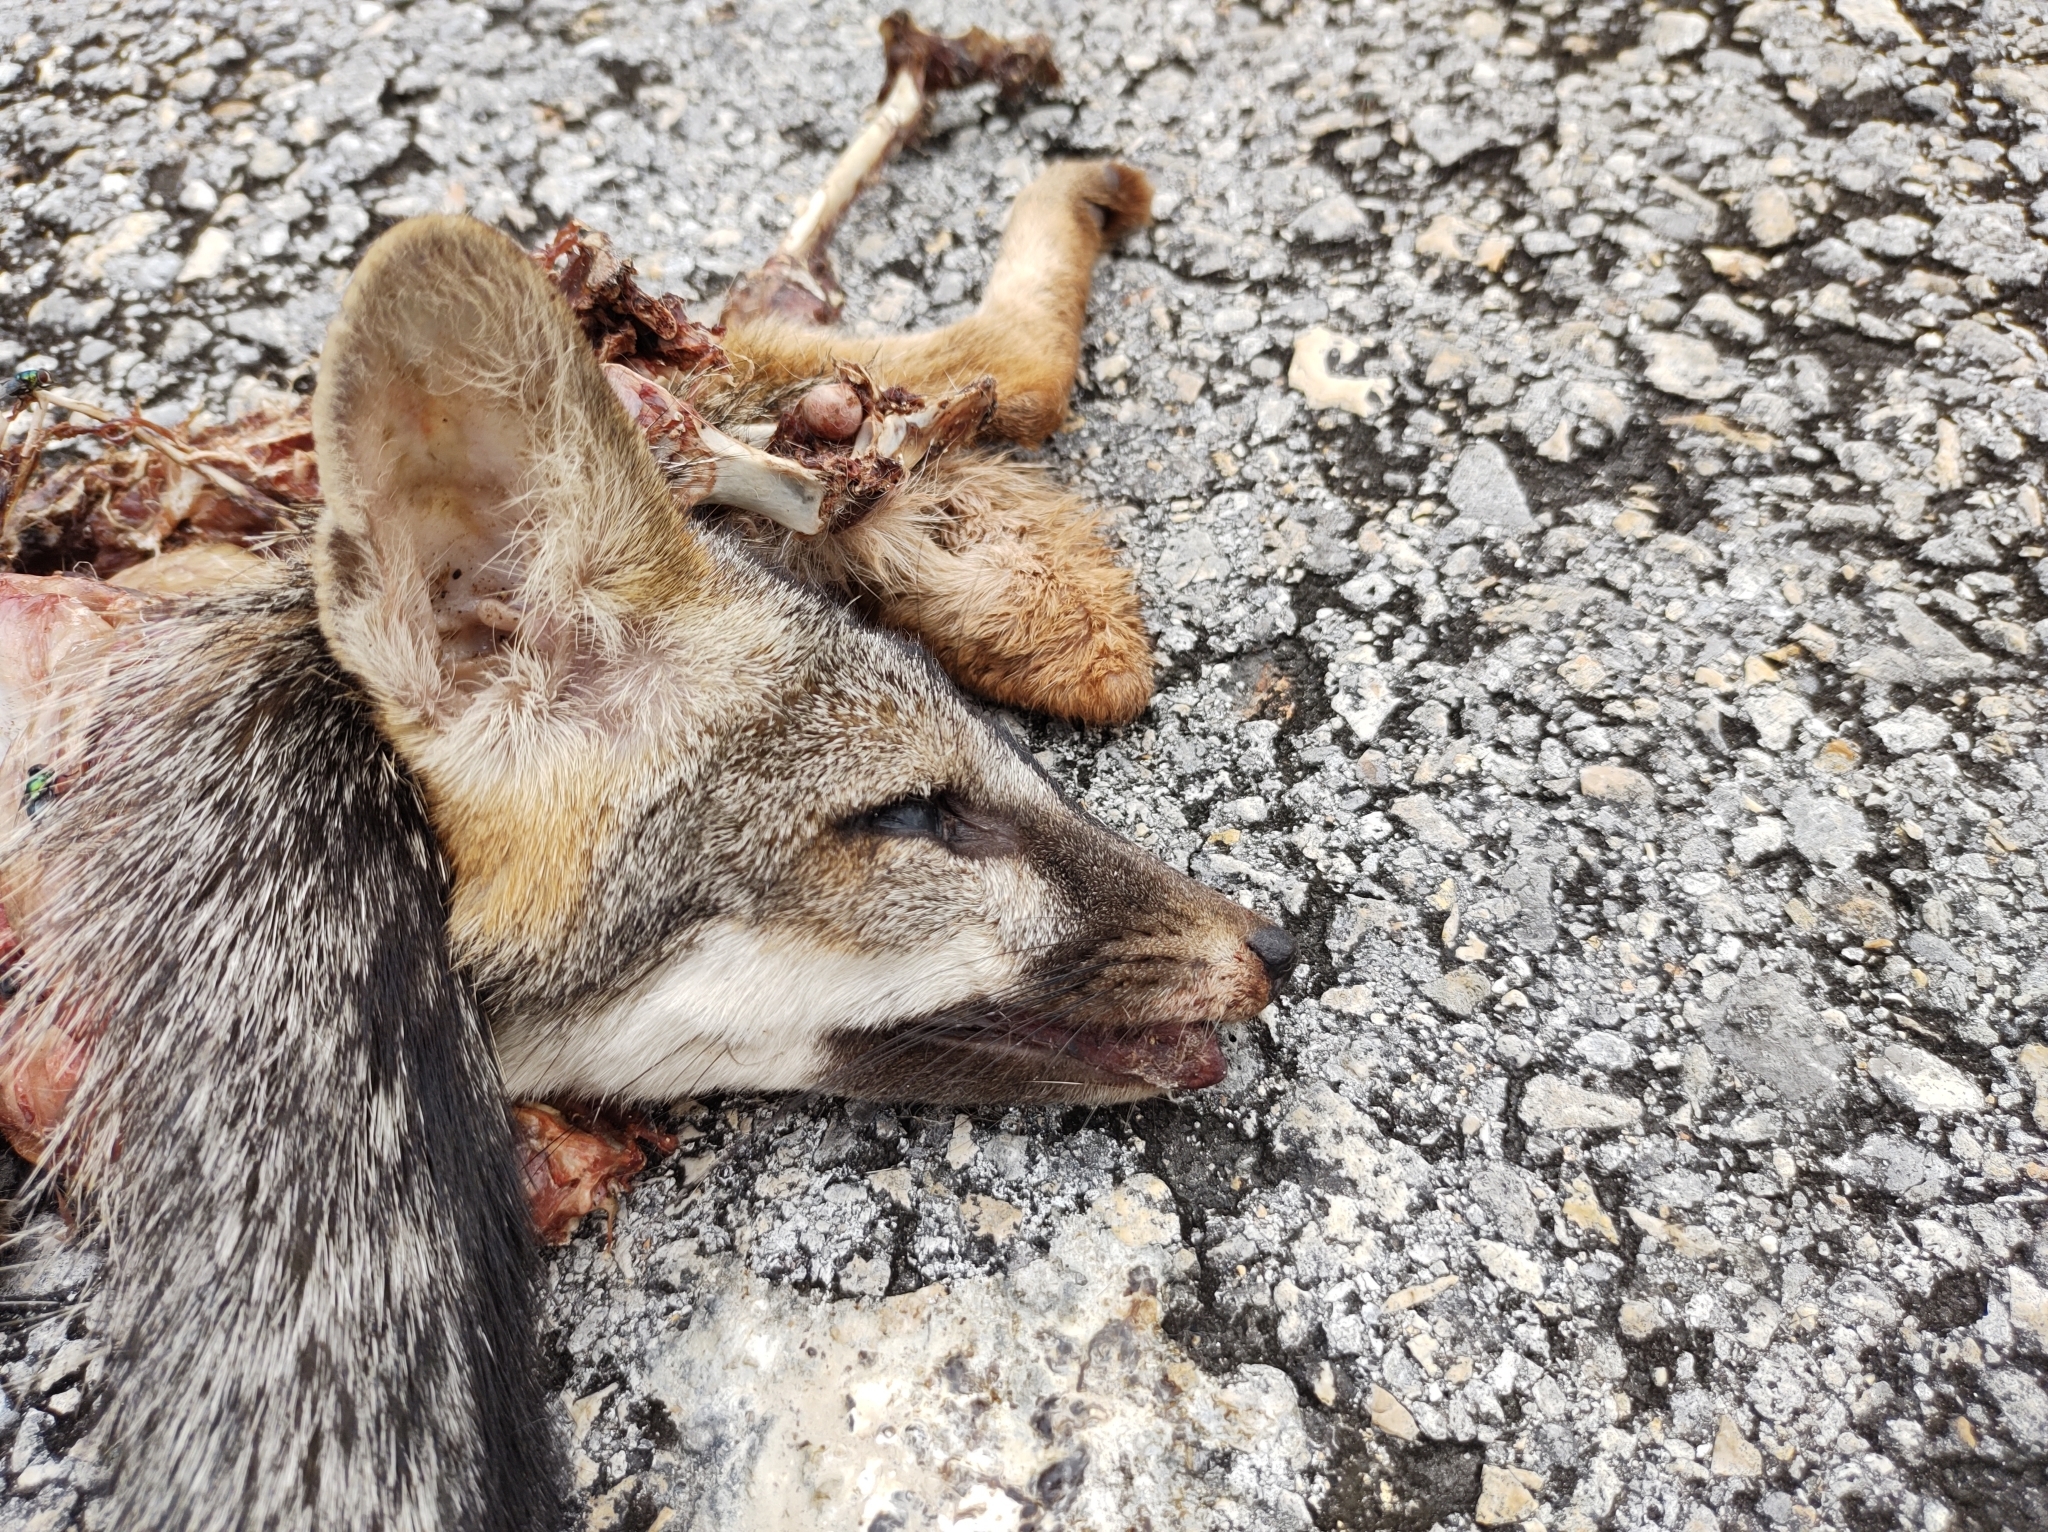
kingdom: Animalia
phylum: Chordata
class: Mammalia
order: Carnivora
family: Canidae
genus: Urocyon
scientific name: Urocyon cinereoargenteus
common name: Gray fox
